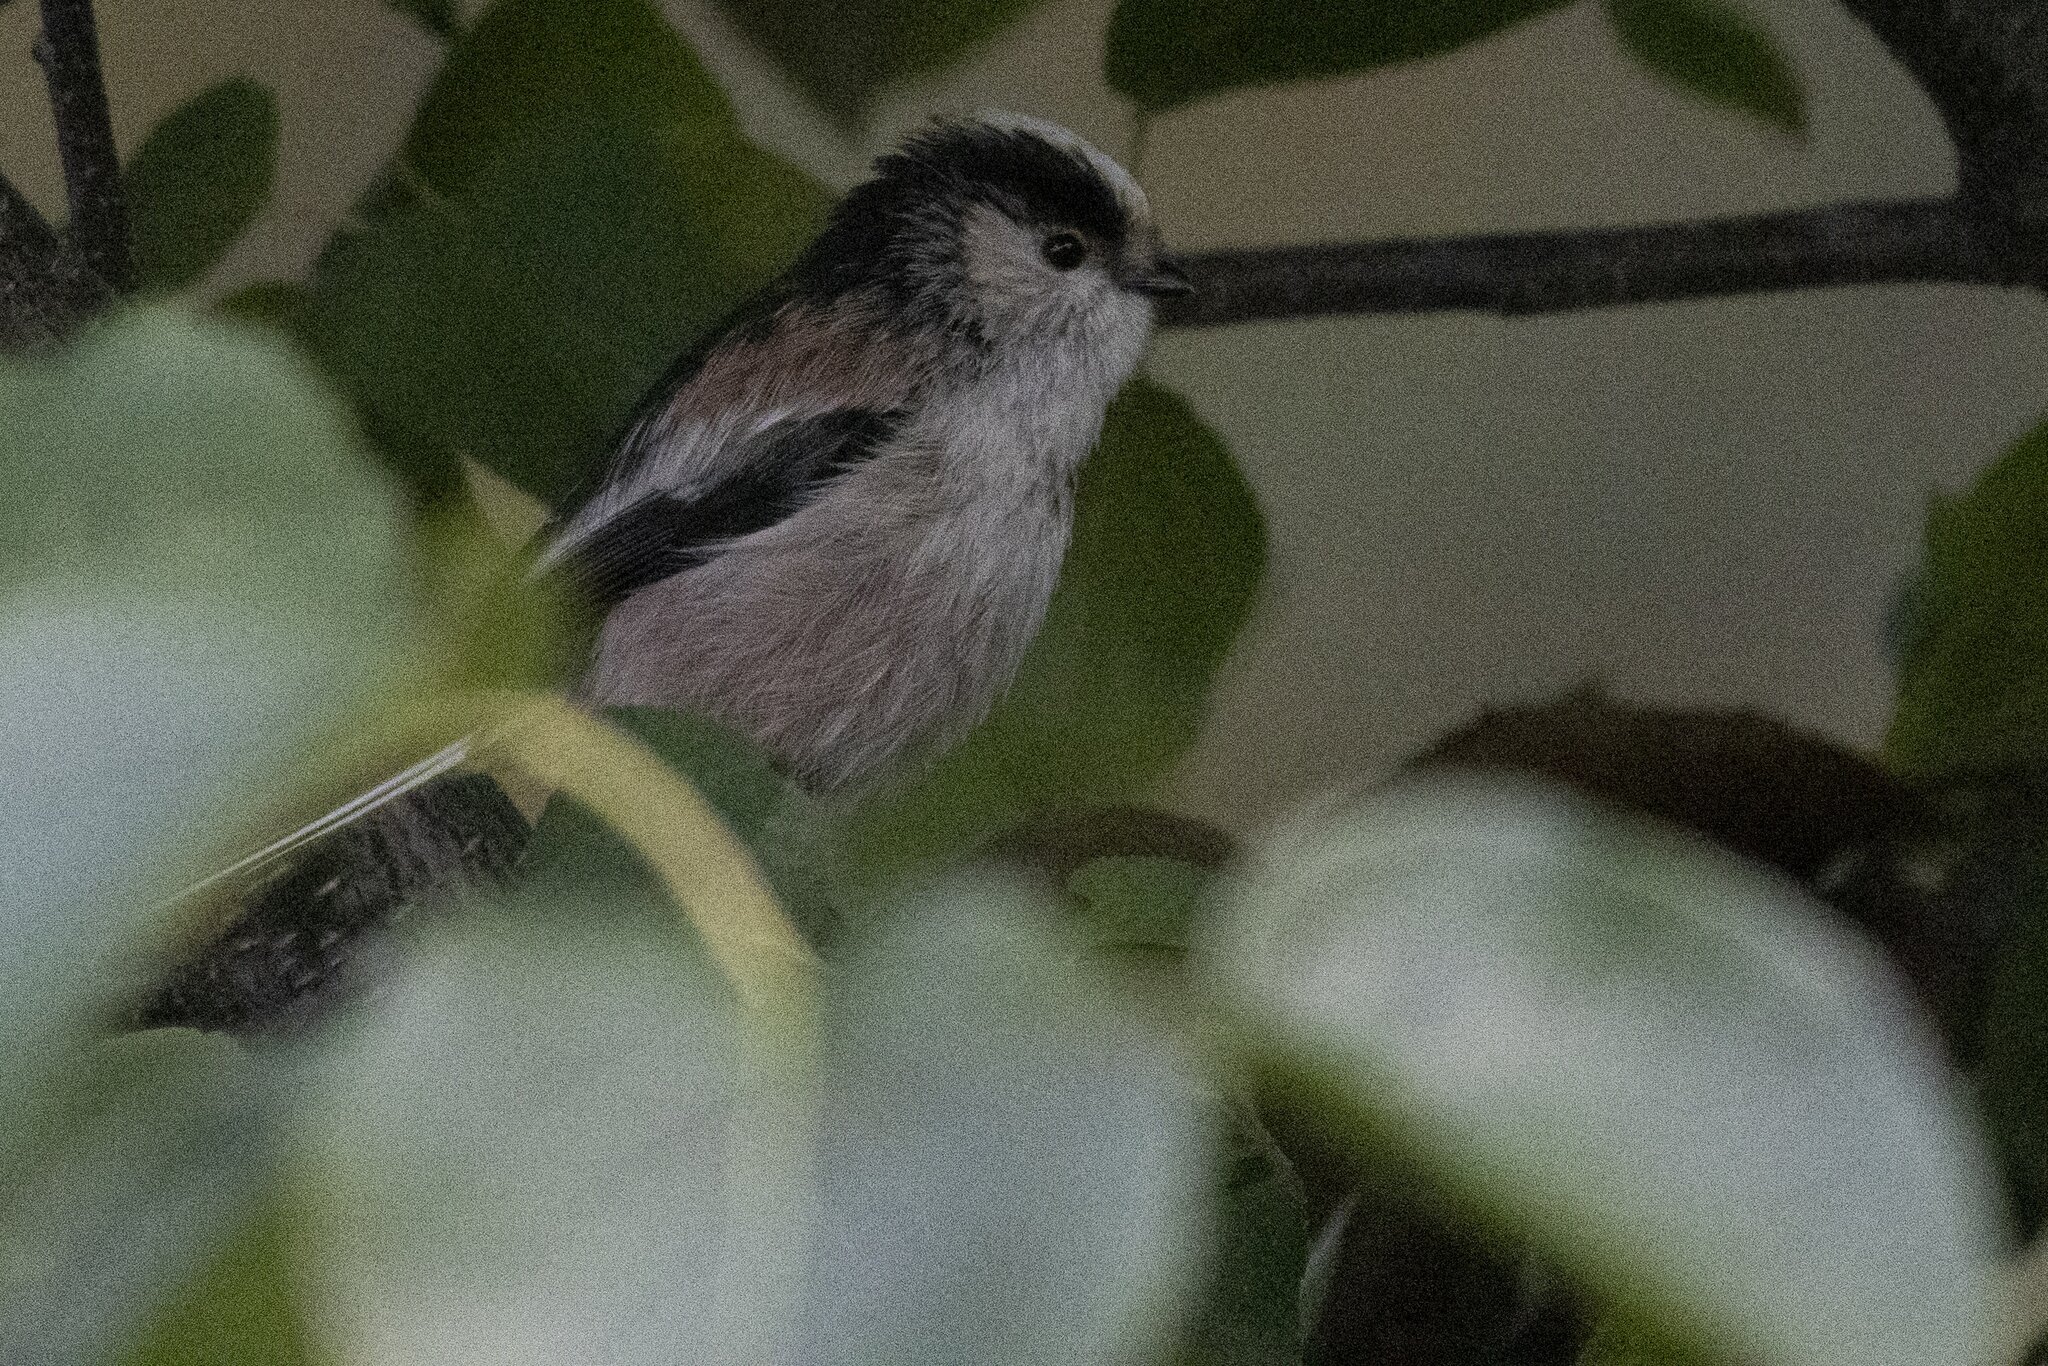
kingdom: Animalia
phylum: Chordata
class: Aves
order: Passeriformes
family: Aegithalidae
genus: Aegithalos
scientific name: Aegithalos caudatus
